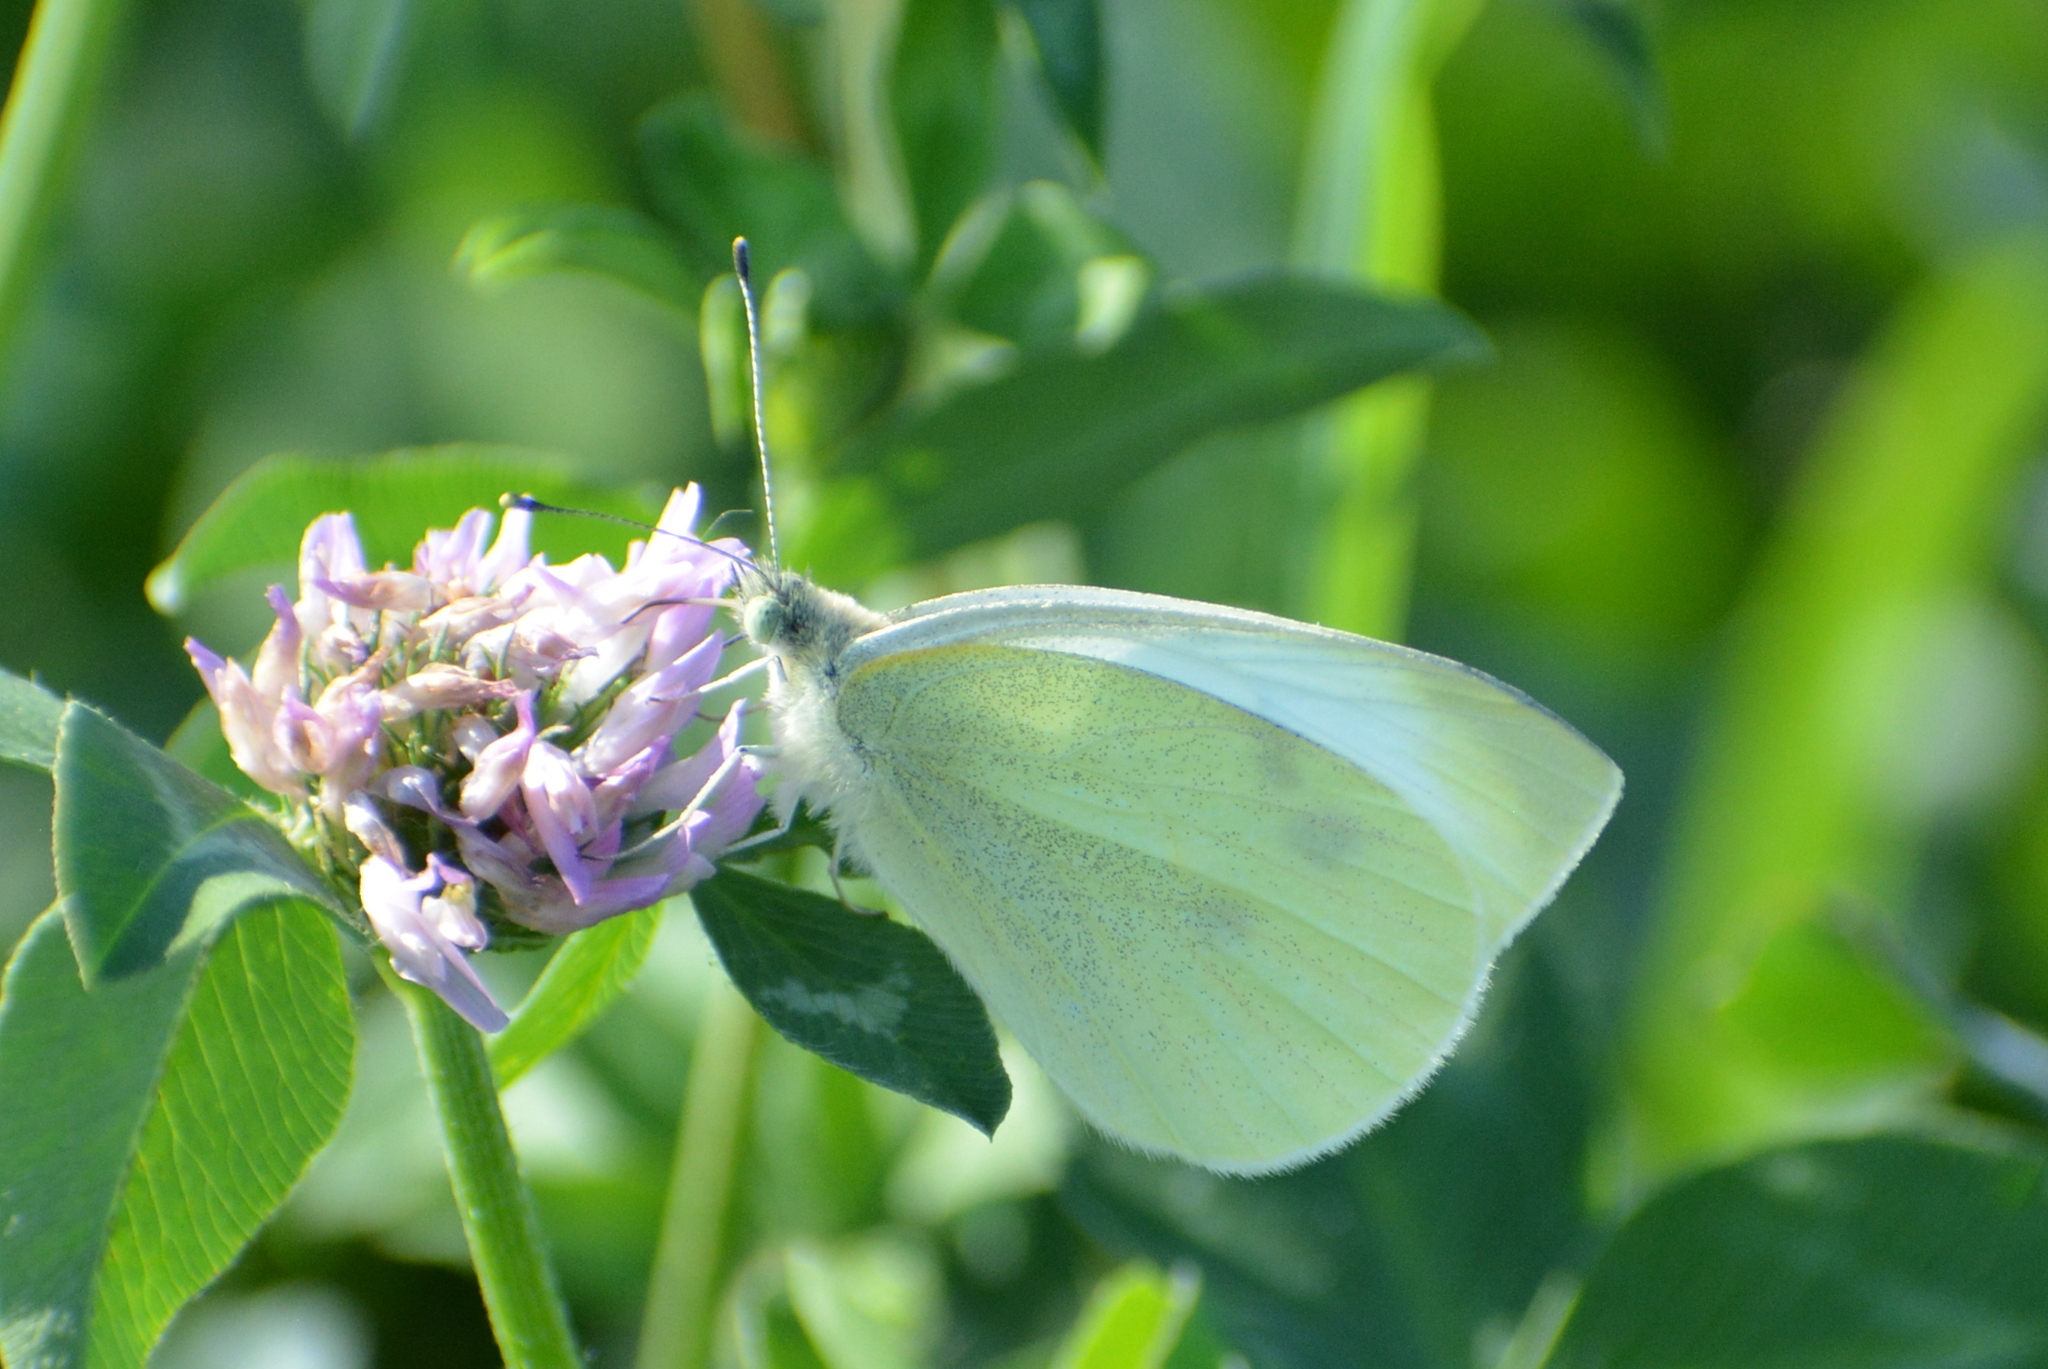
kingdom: Animalia
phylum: Arthropoda
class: Insecta
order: Lepidoptera
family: Pieridae
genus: Pieris
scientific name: Pieris rapae
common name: Small white
